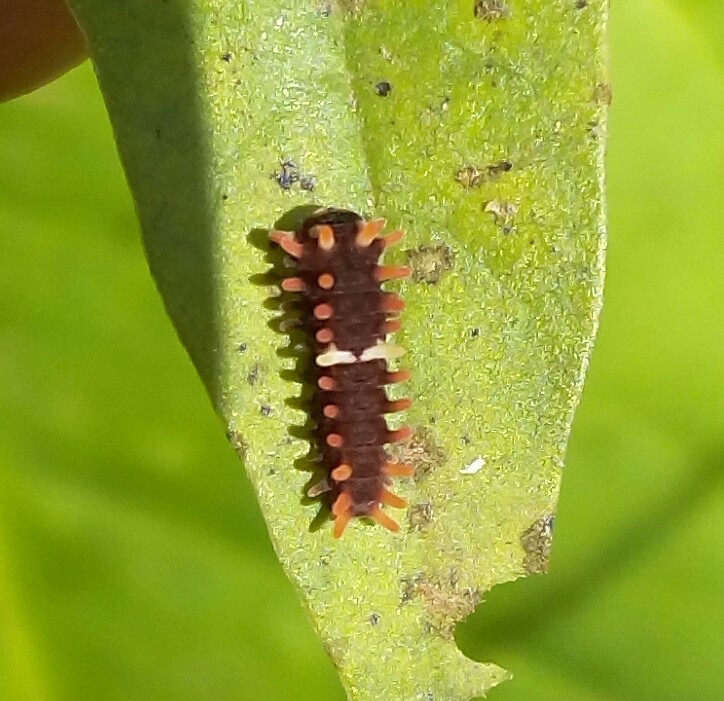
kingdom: Animalia
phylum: Arthropoda
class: Insecta
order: Lepidoptera
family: Papilionidae
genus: Pachliopta
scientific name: Pachliopta aristolochiae
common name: Common rose
